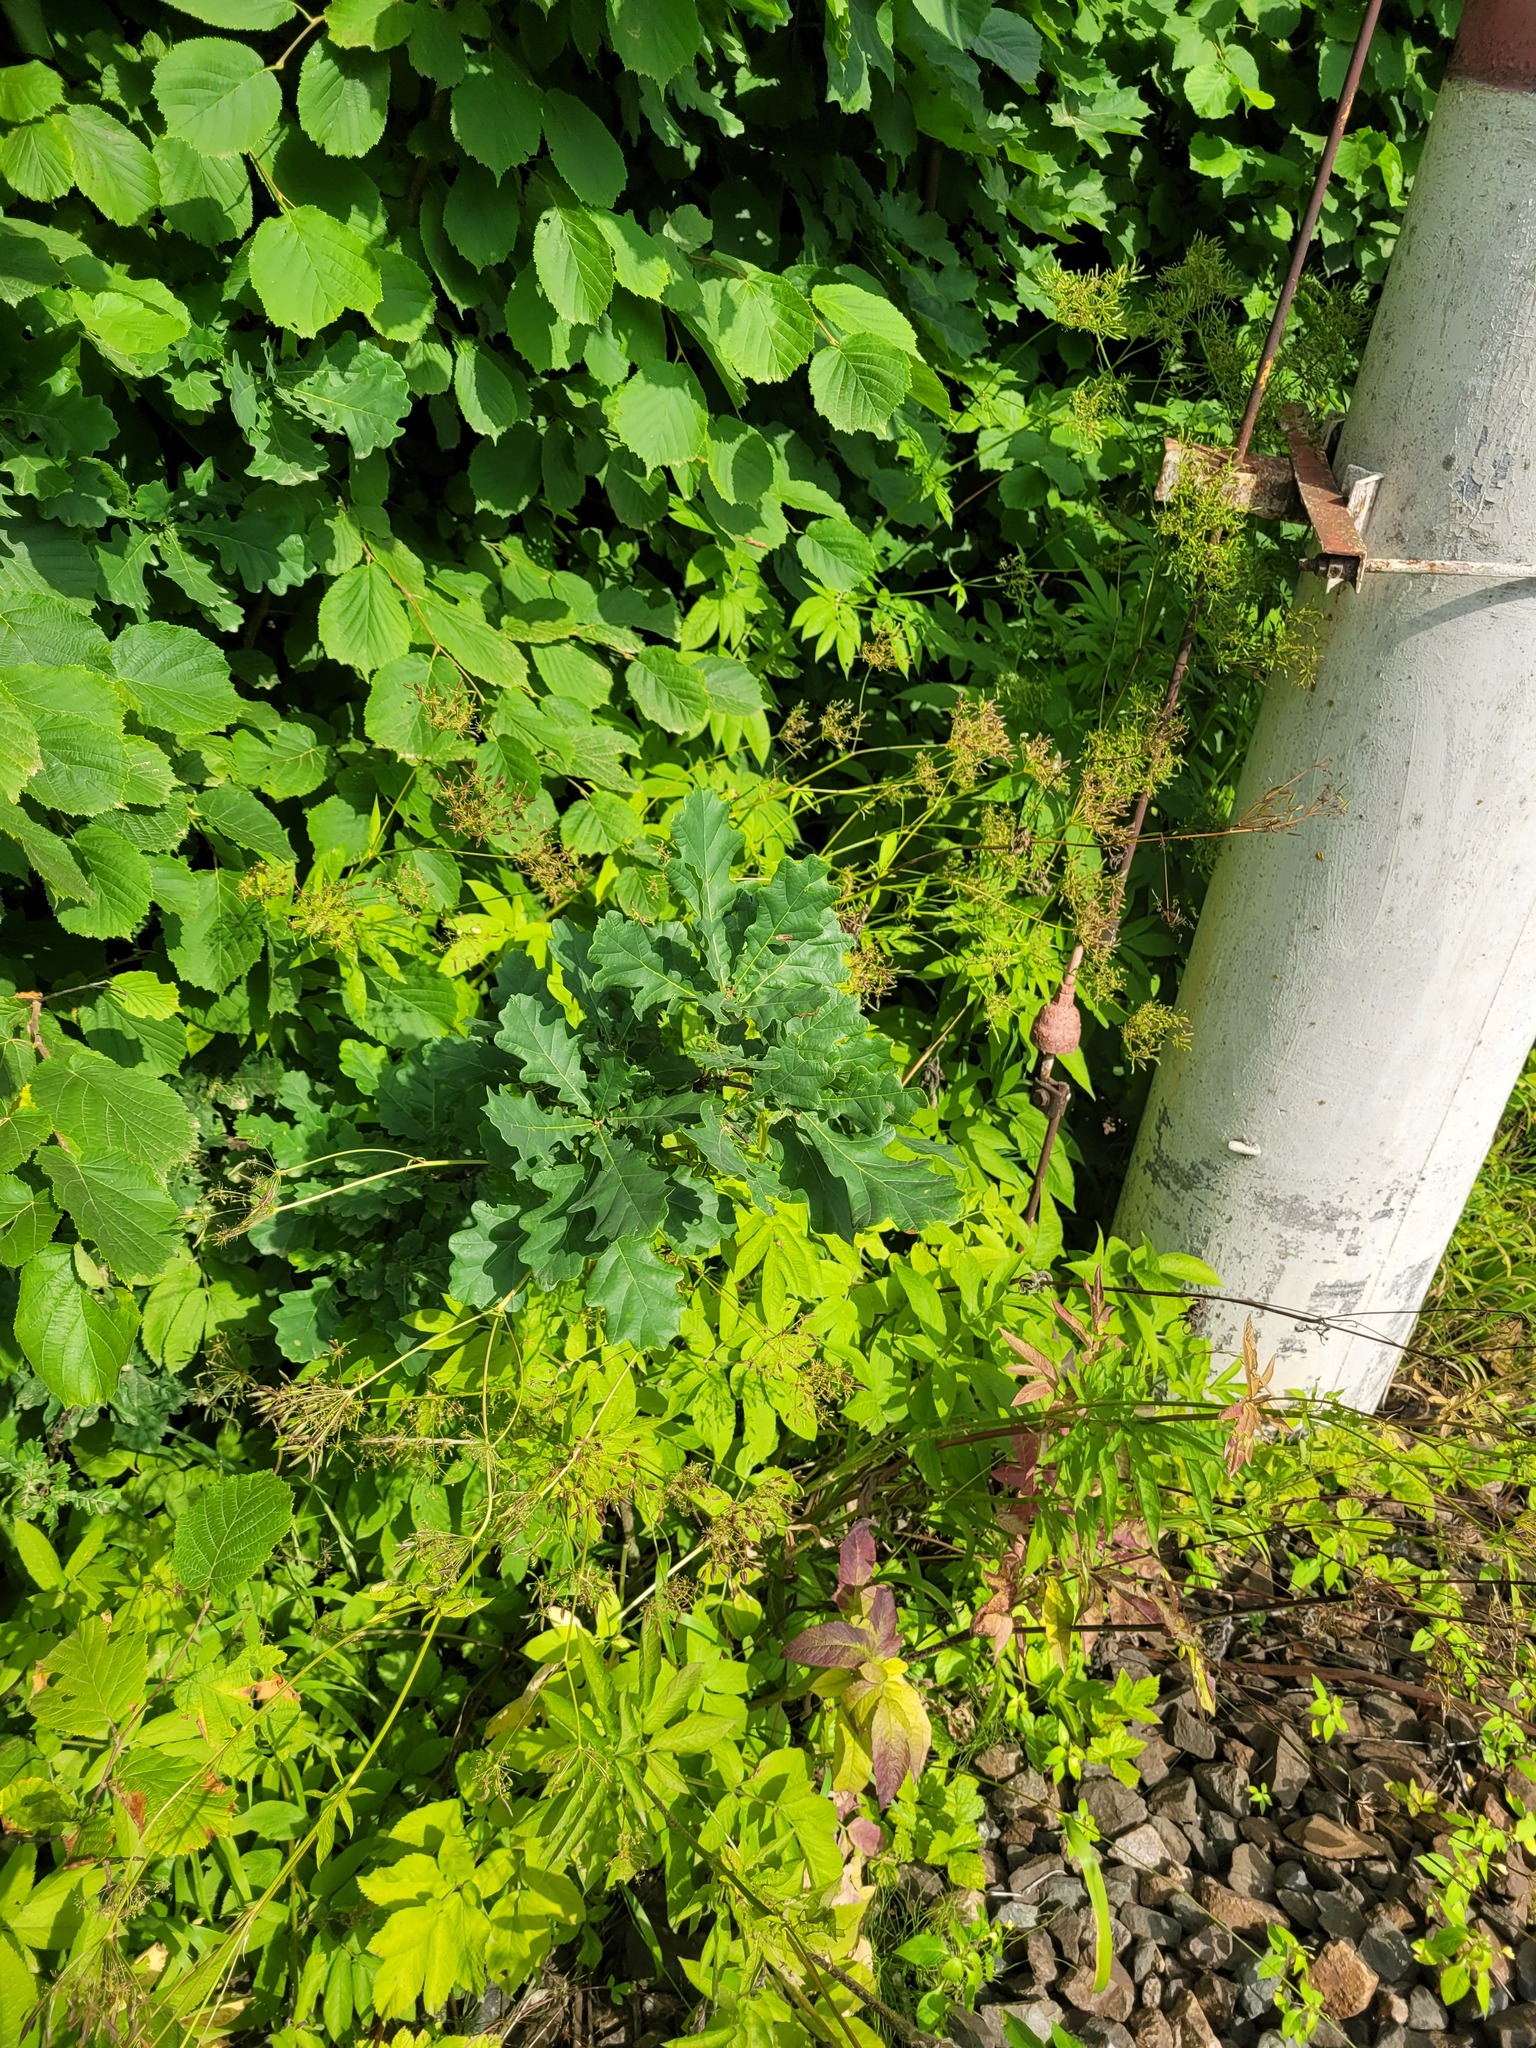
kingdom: Plantae
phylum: Tracheophyta
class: Magnoliopsida
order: Fagales
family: Fagaceae
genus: Quercus
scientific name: Quercus robur
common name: Pedunculate oak
